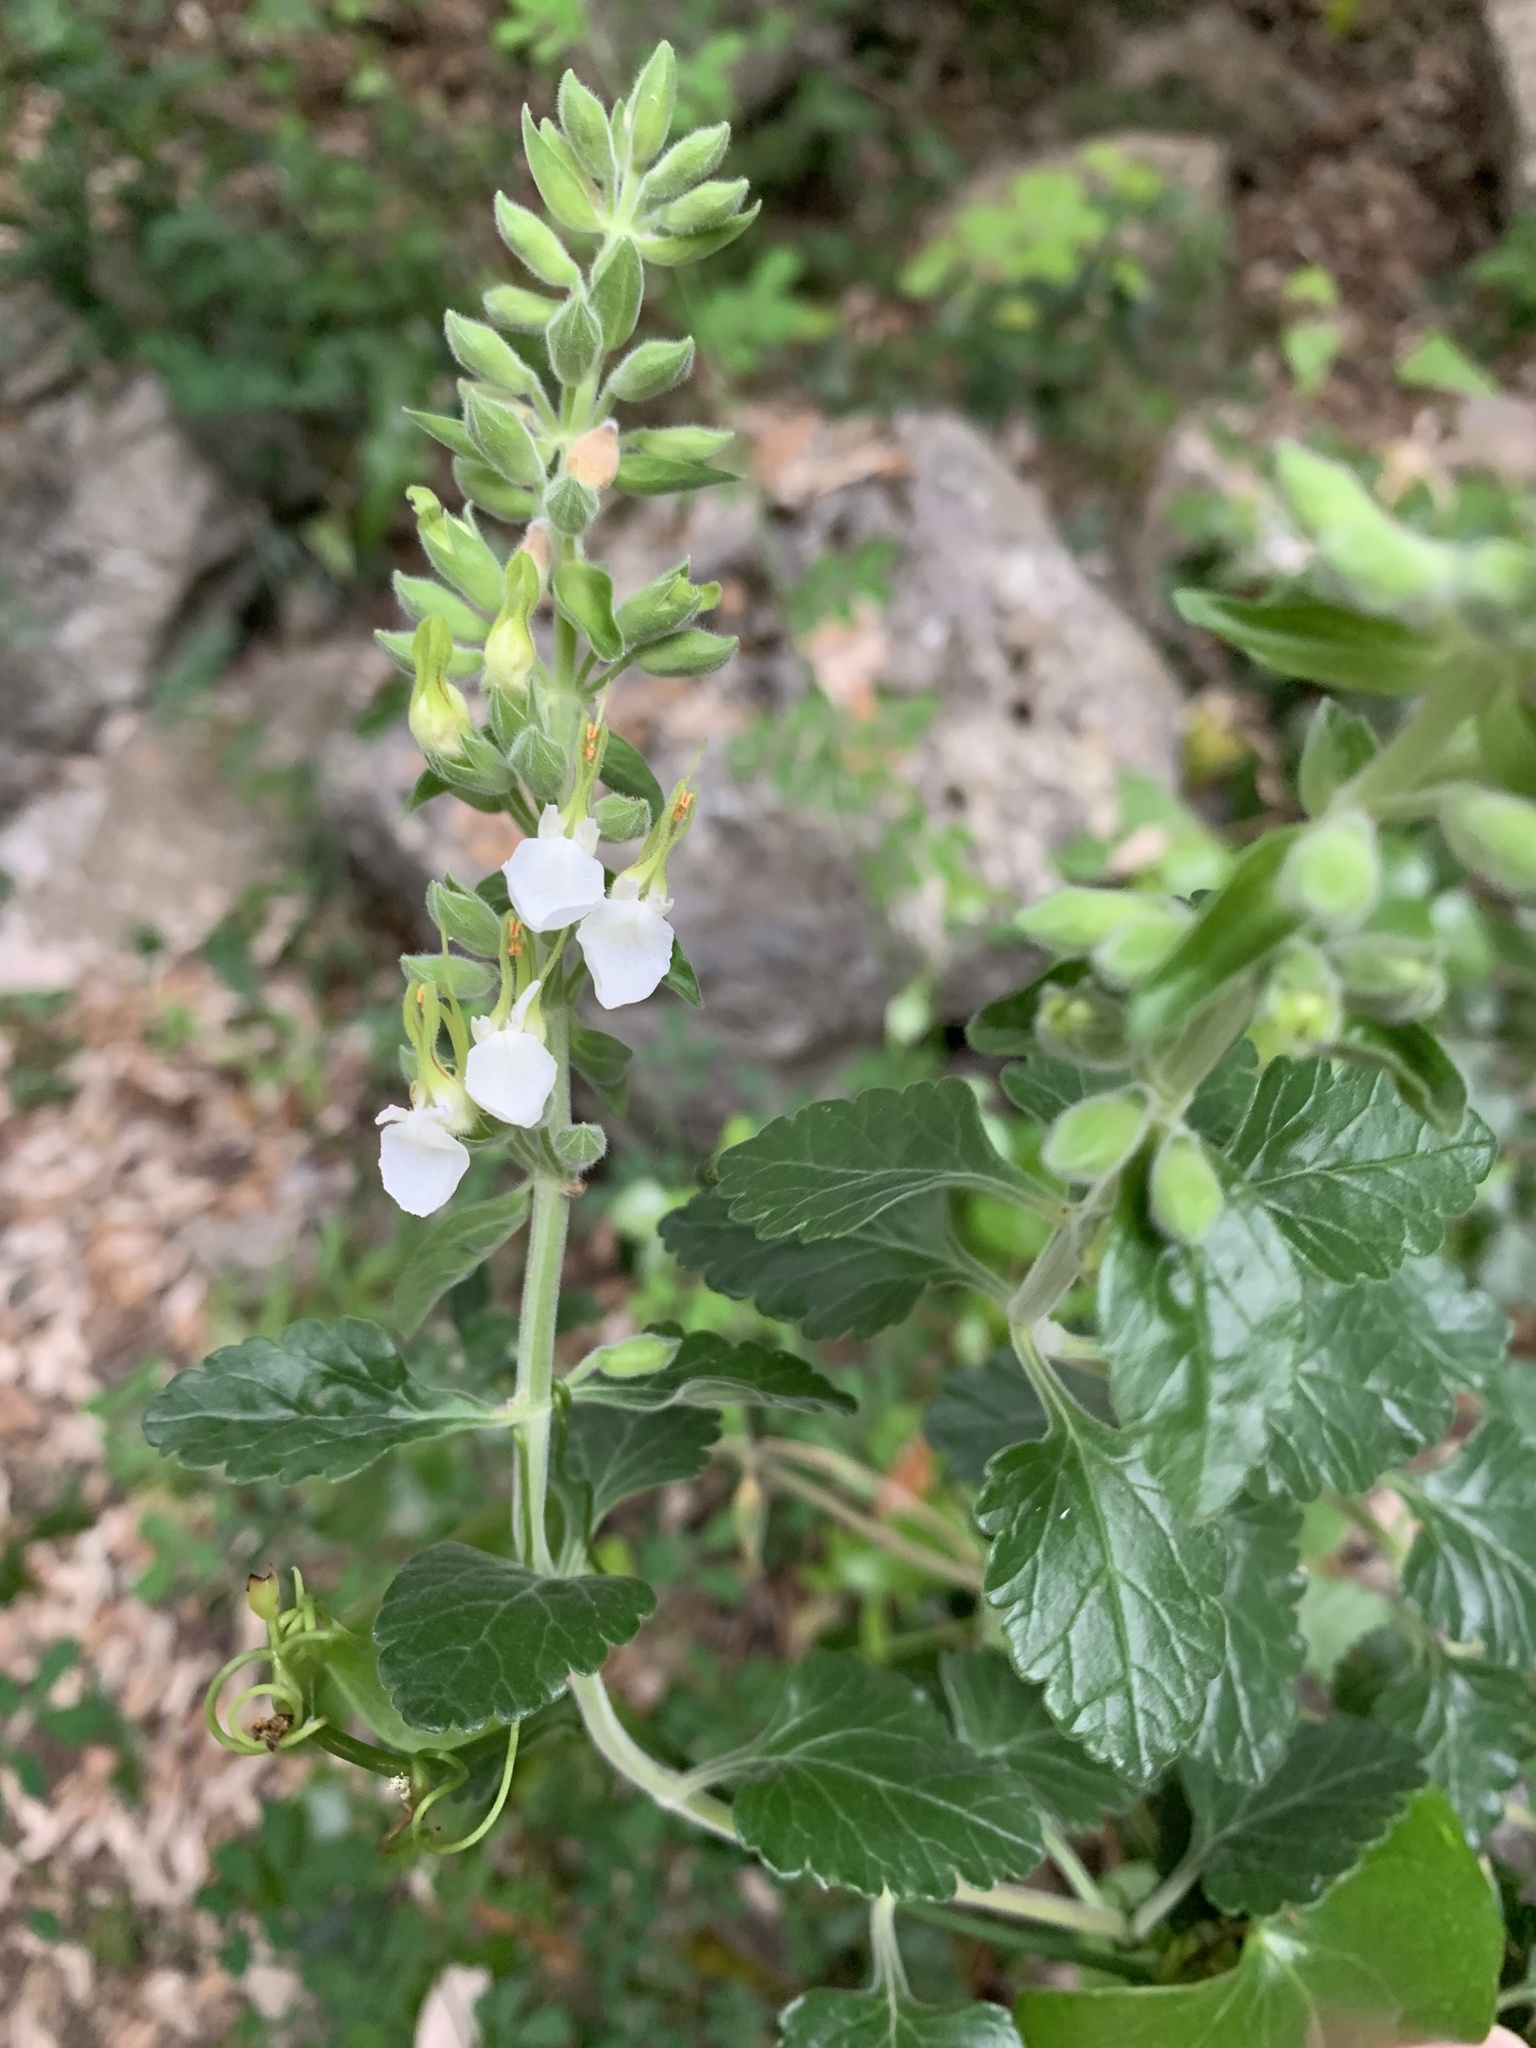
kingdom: Plantae
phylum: Tracheophyta
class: Magnoliopsida
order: Lamiales
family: Lamiaceae
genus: Teucrium
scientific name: Teucrium flavum
